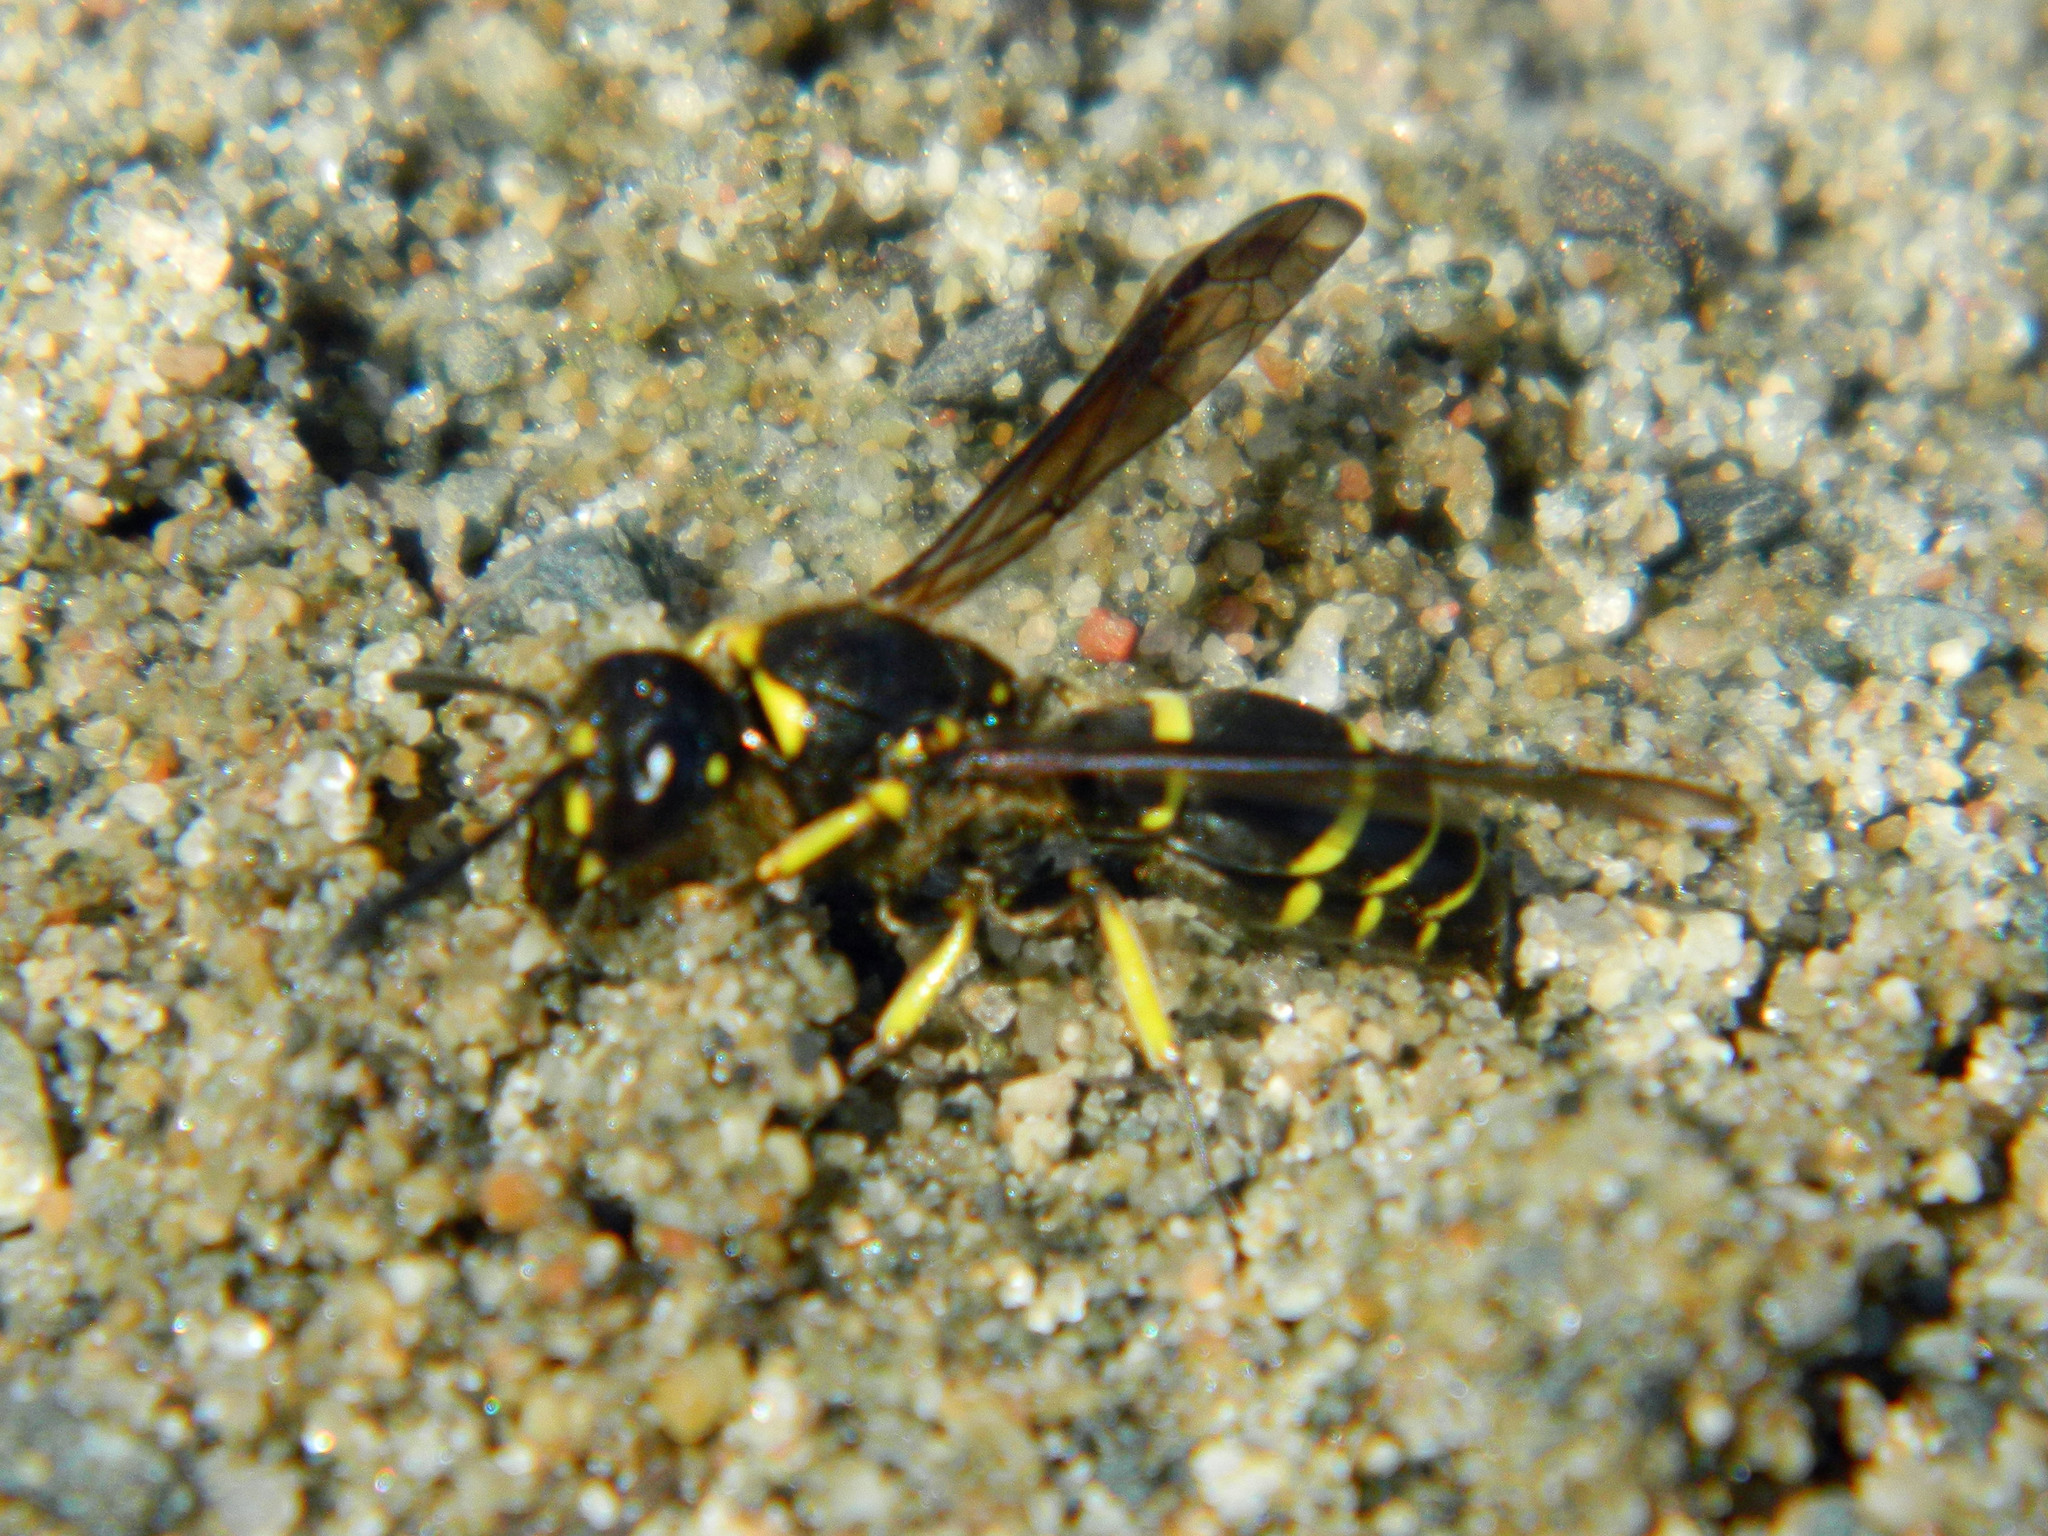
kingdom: Animalia
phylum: Arthropoda
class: Insecta
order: Hymenoptera
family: Vespidae
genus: Ancistrocerus
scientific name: Ancistrocerus
